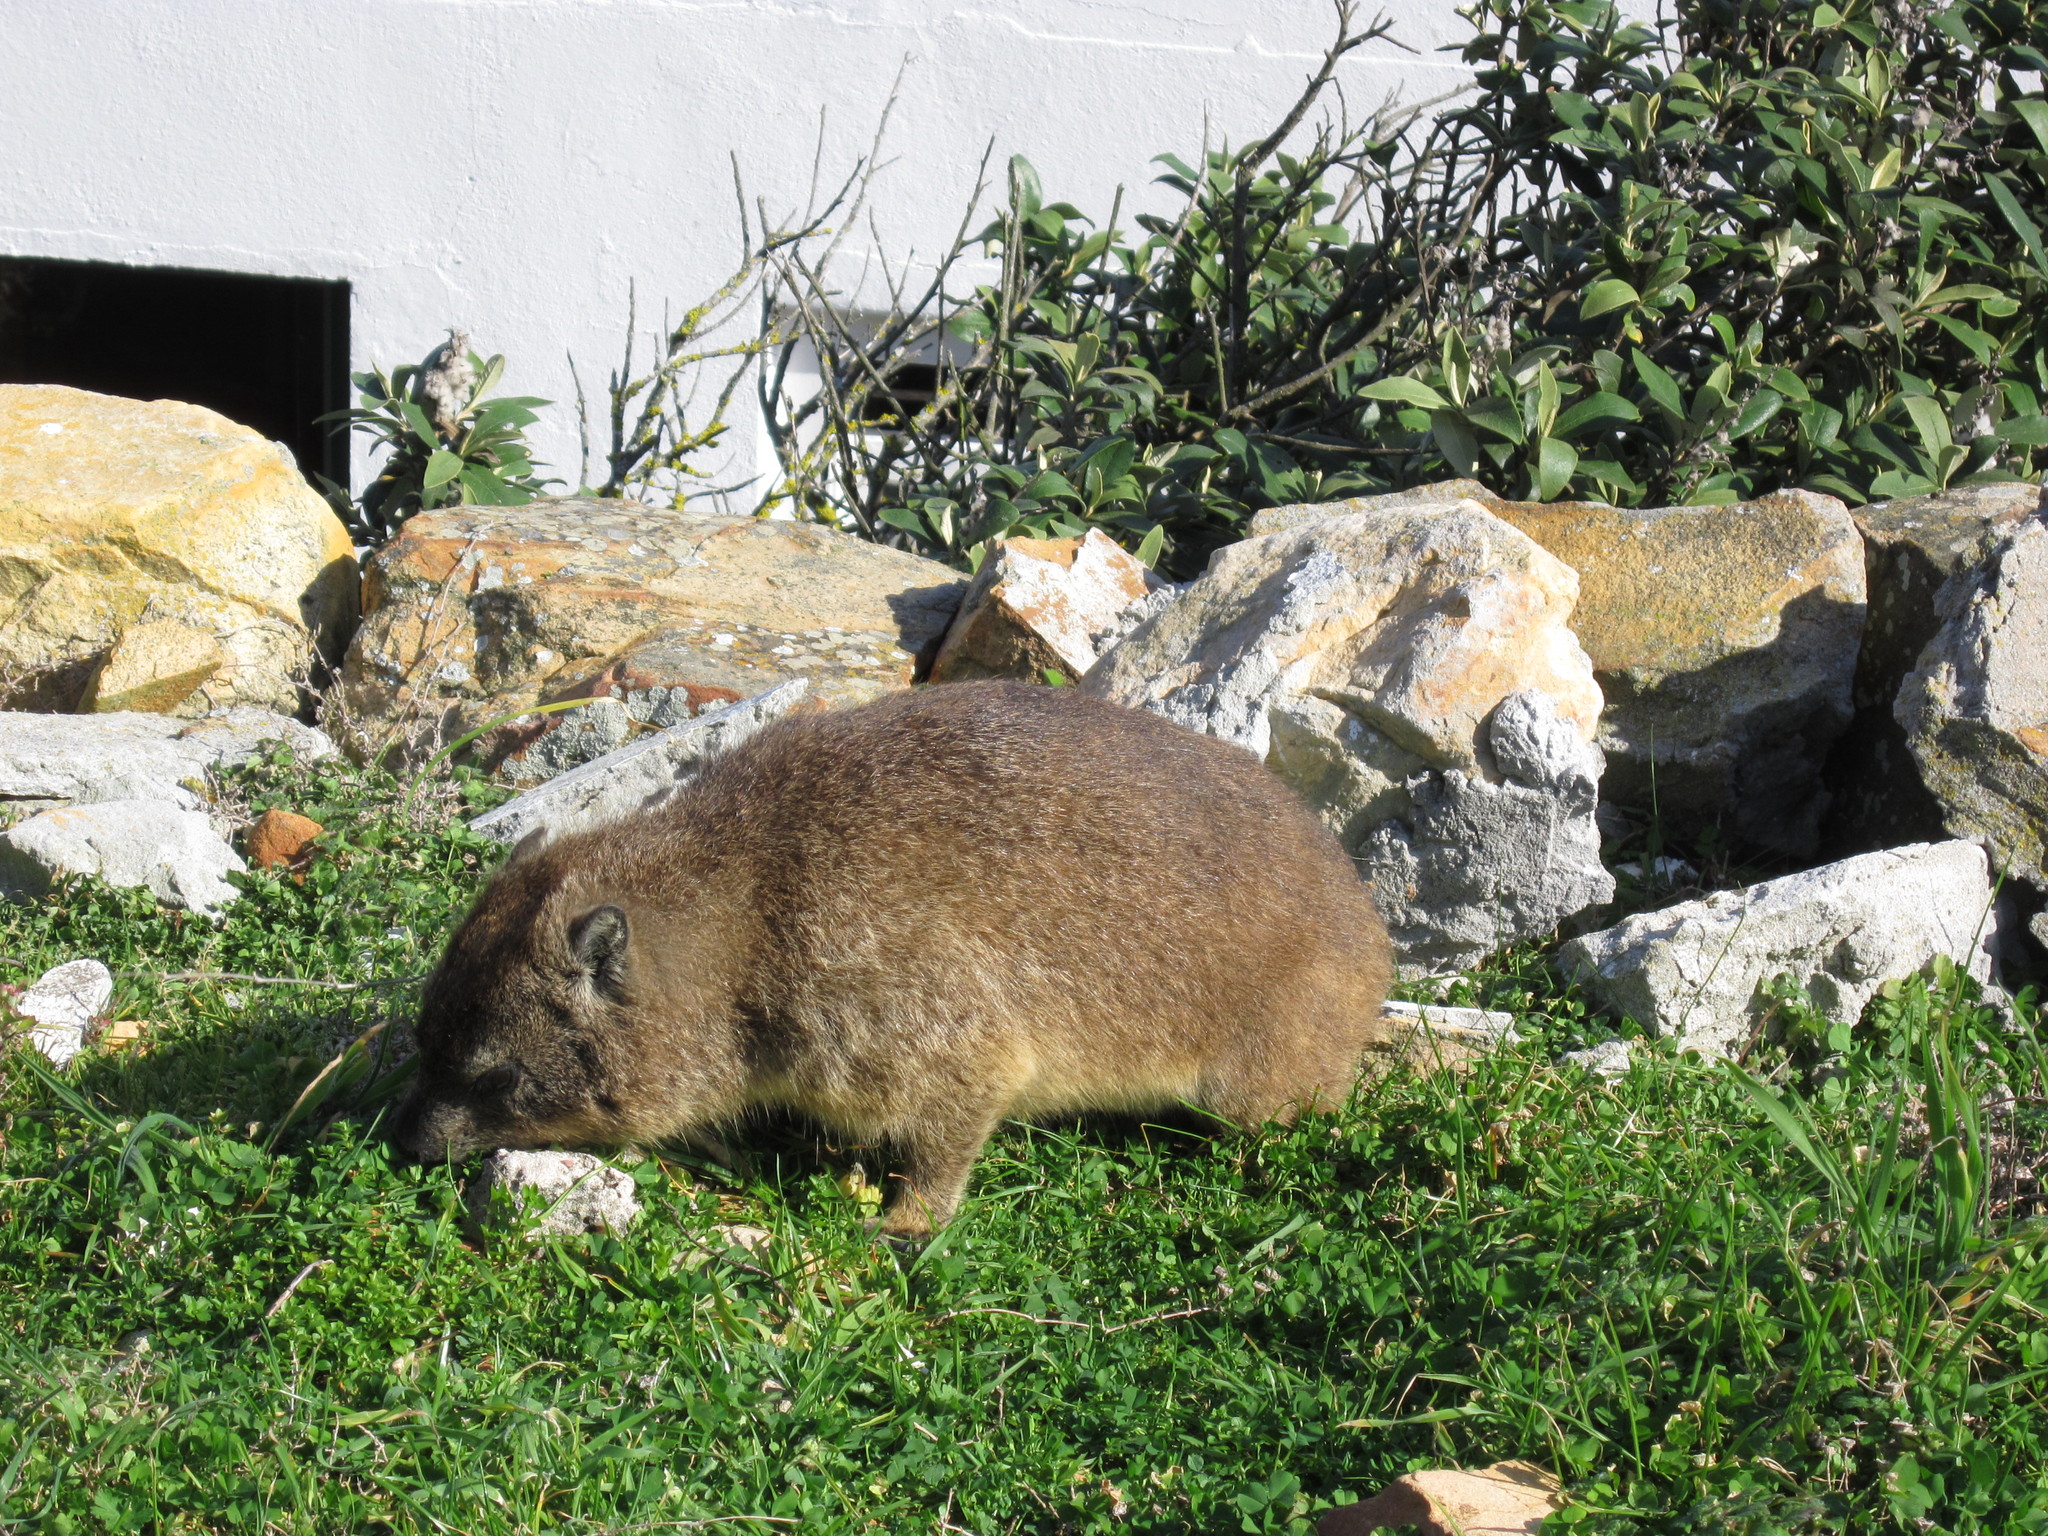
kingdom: Animalia
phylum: Chordata
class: Mammalia
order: Hyracoidea
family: Procaviidae
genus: Procavia
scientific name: Procavia capensis
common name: Rock hyrax
